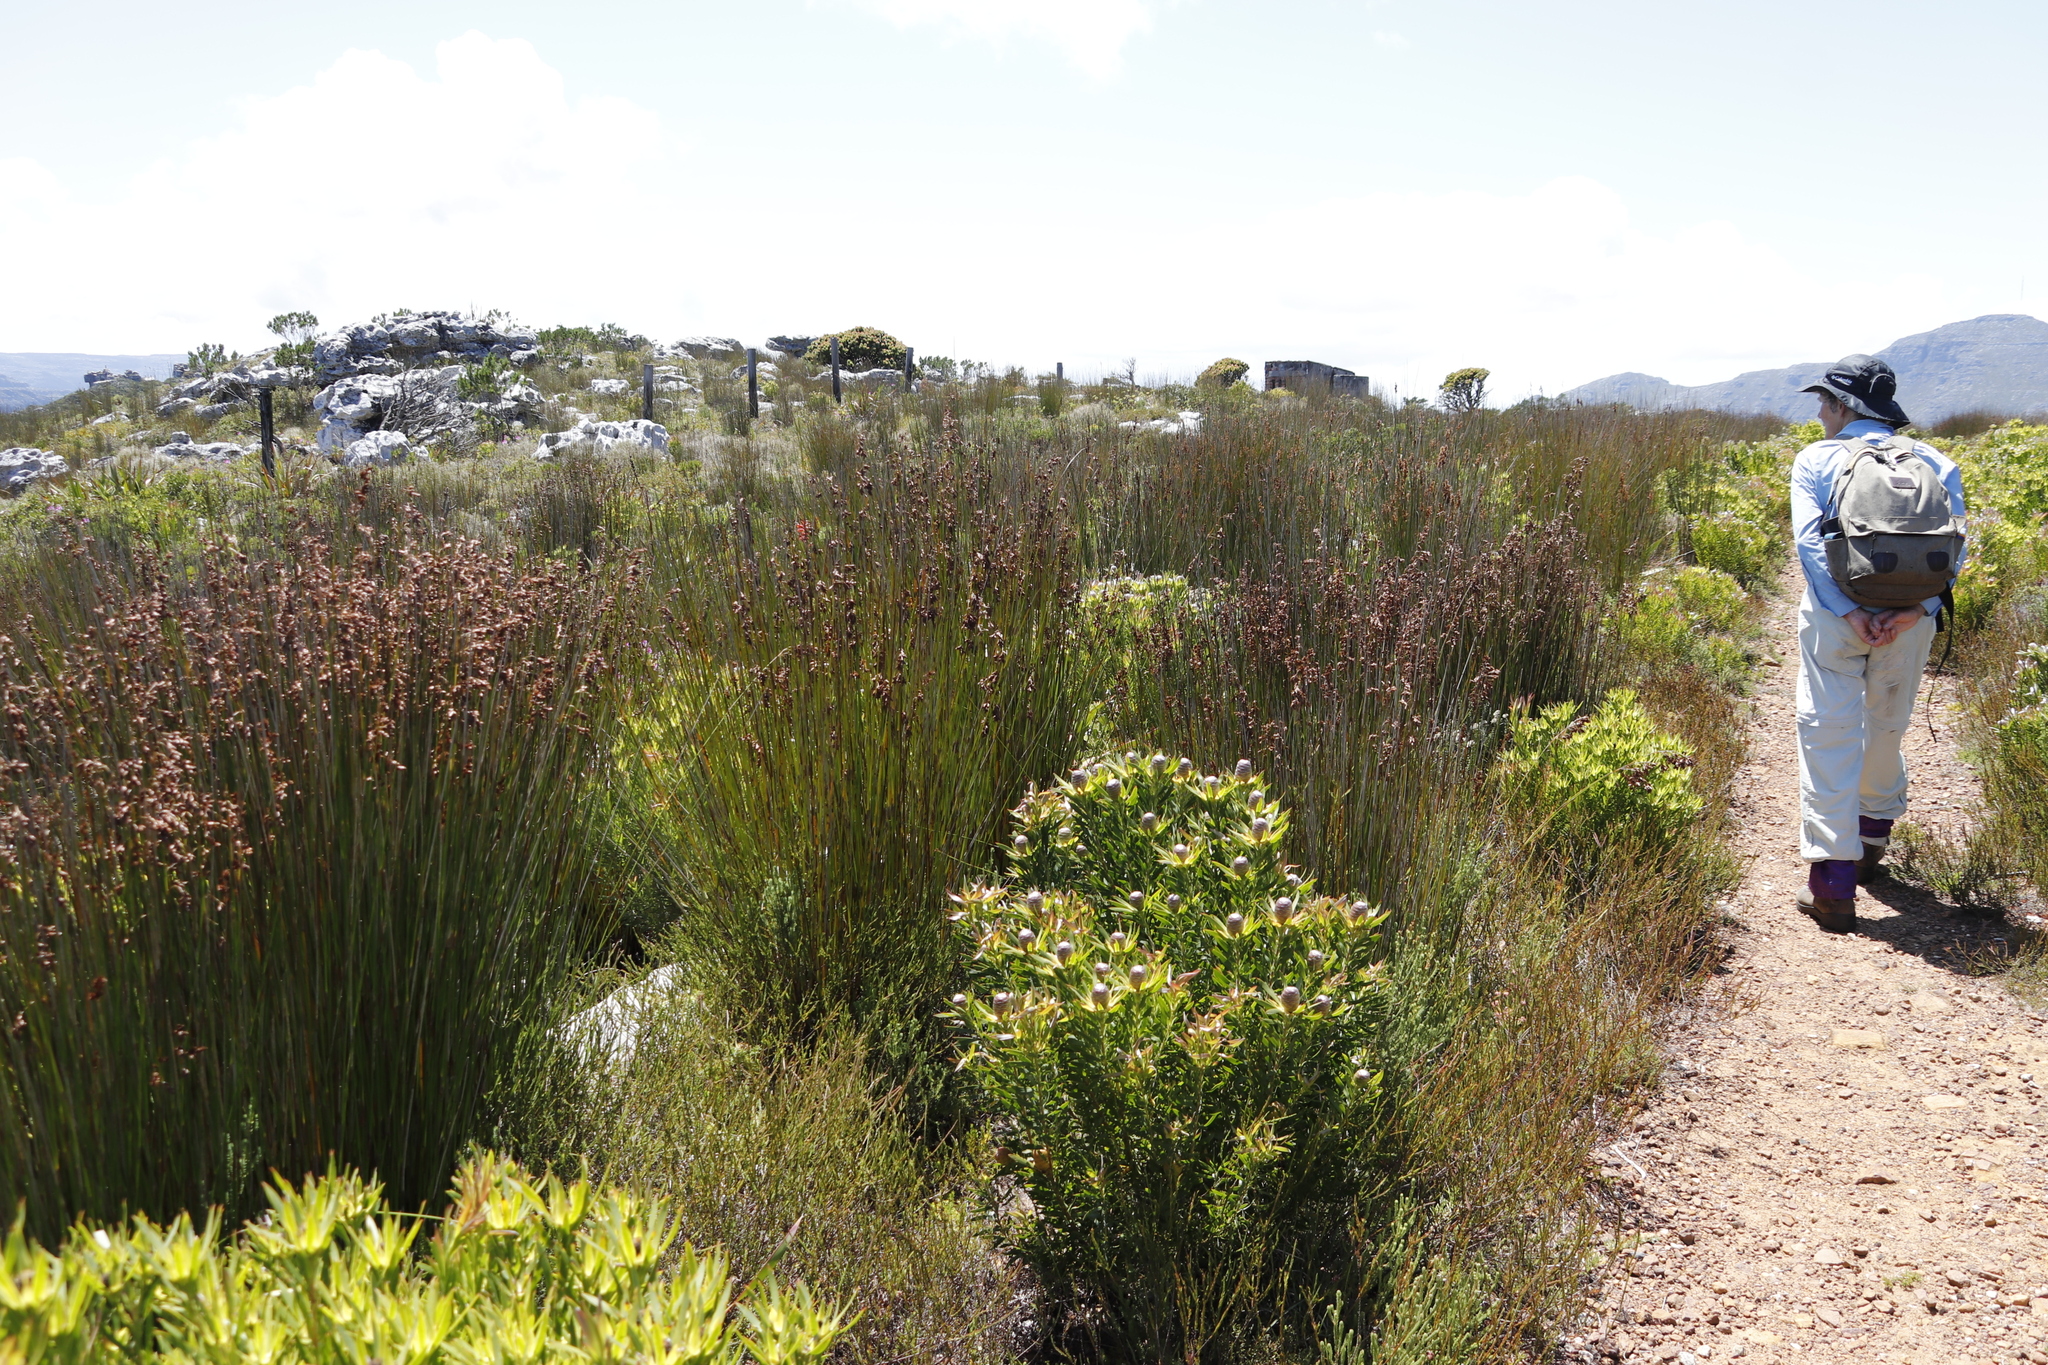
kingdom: Plantae
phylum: Tracheophyta
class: Magnoliopsida
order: Proteales
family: Proteaceae
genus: Leucadendron
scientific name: Leucadendron xanthoconus
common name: Sickle-leaf conebush
